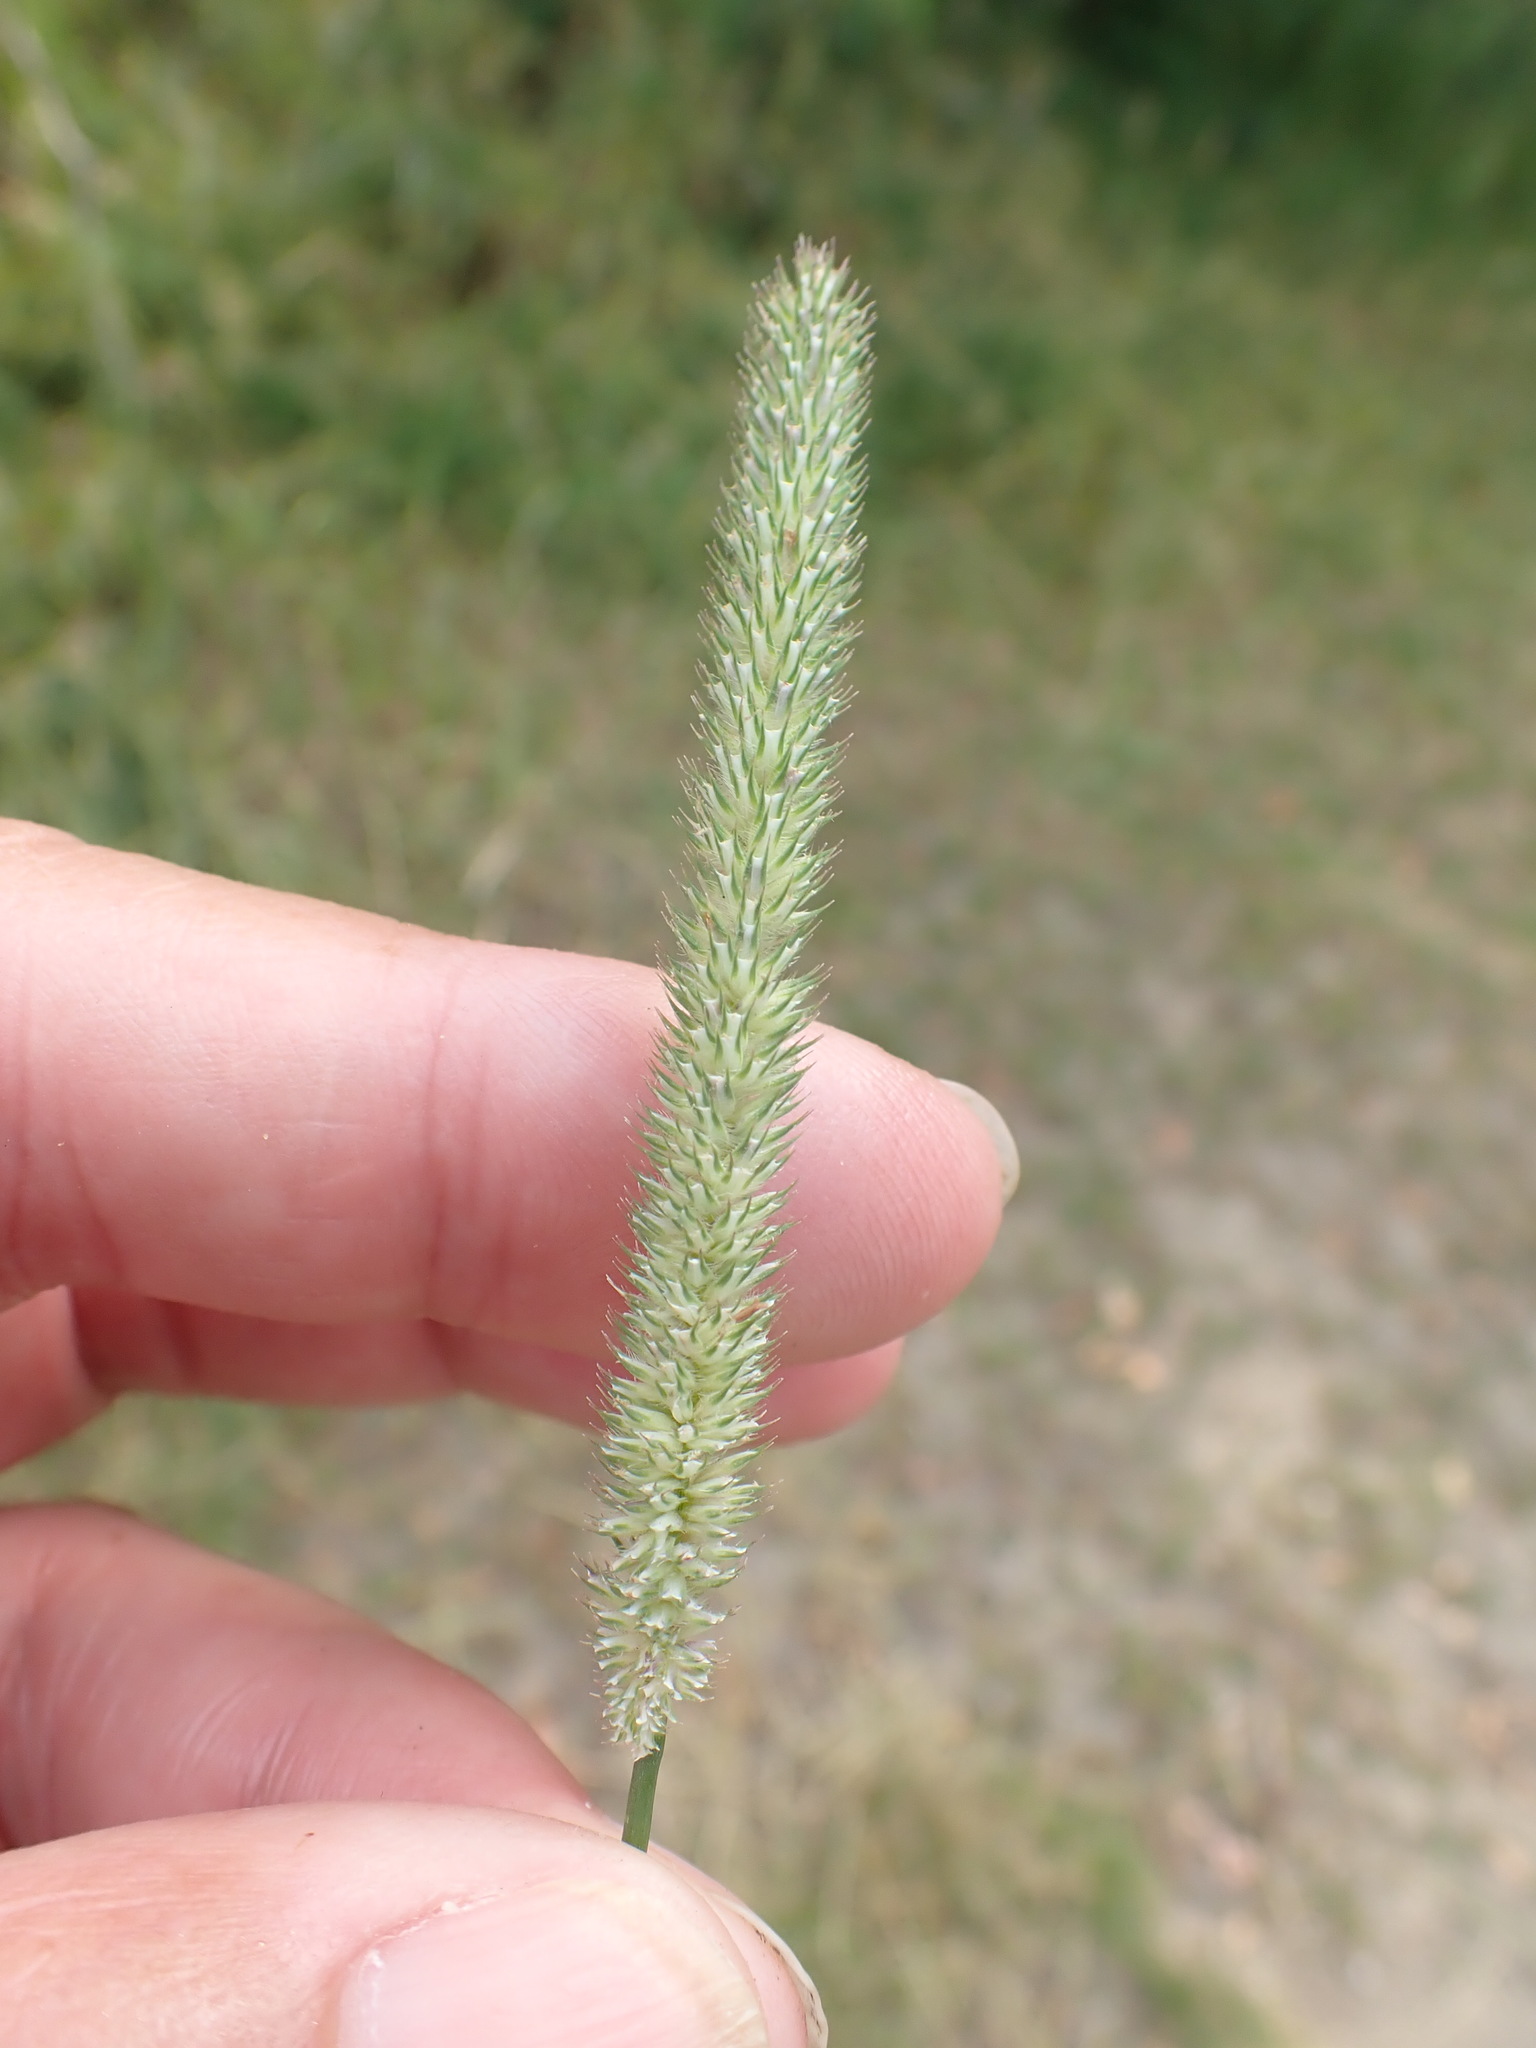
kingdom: Plantae
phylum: Tracheophyta
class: Liliopsida
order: Poales
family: Poaceae
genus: Phleum
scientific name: Phleum pratense
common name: Timothy grass
